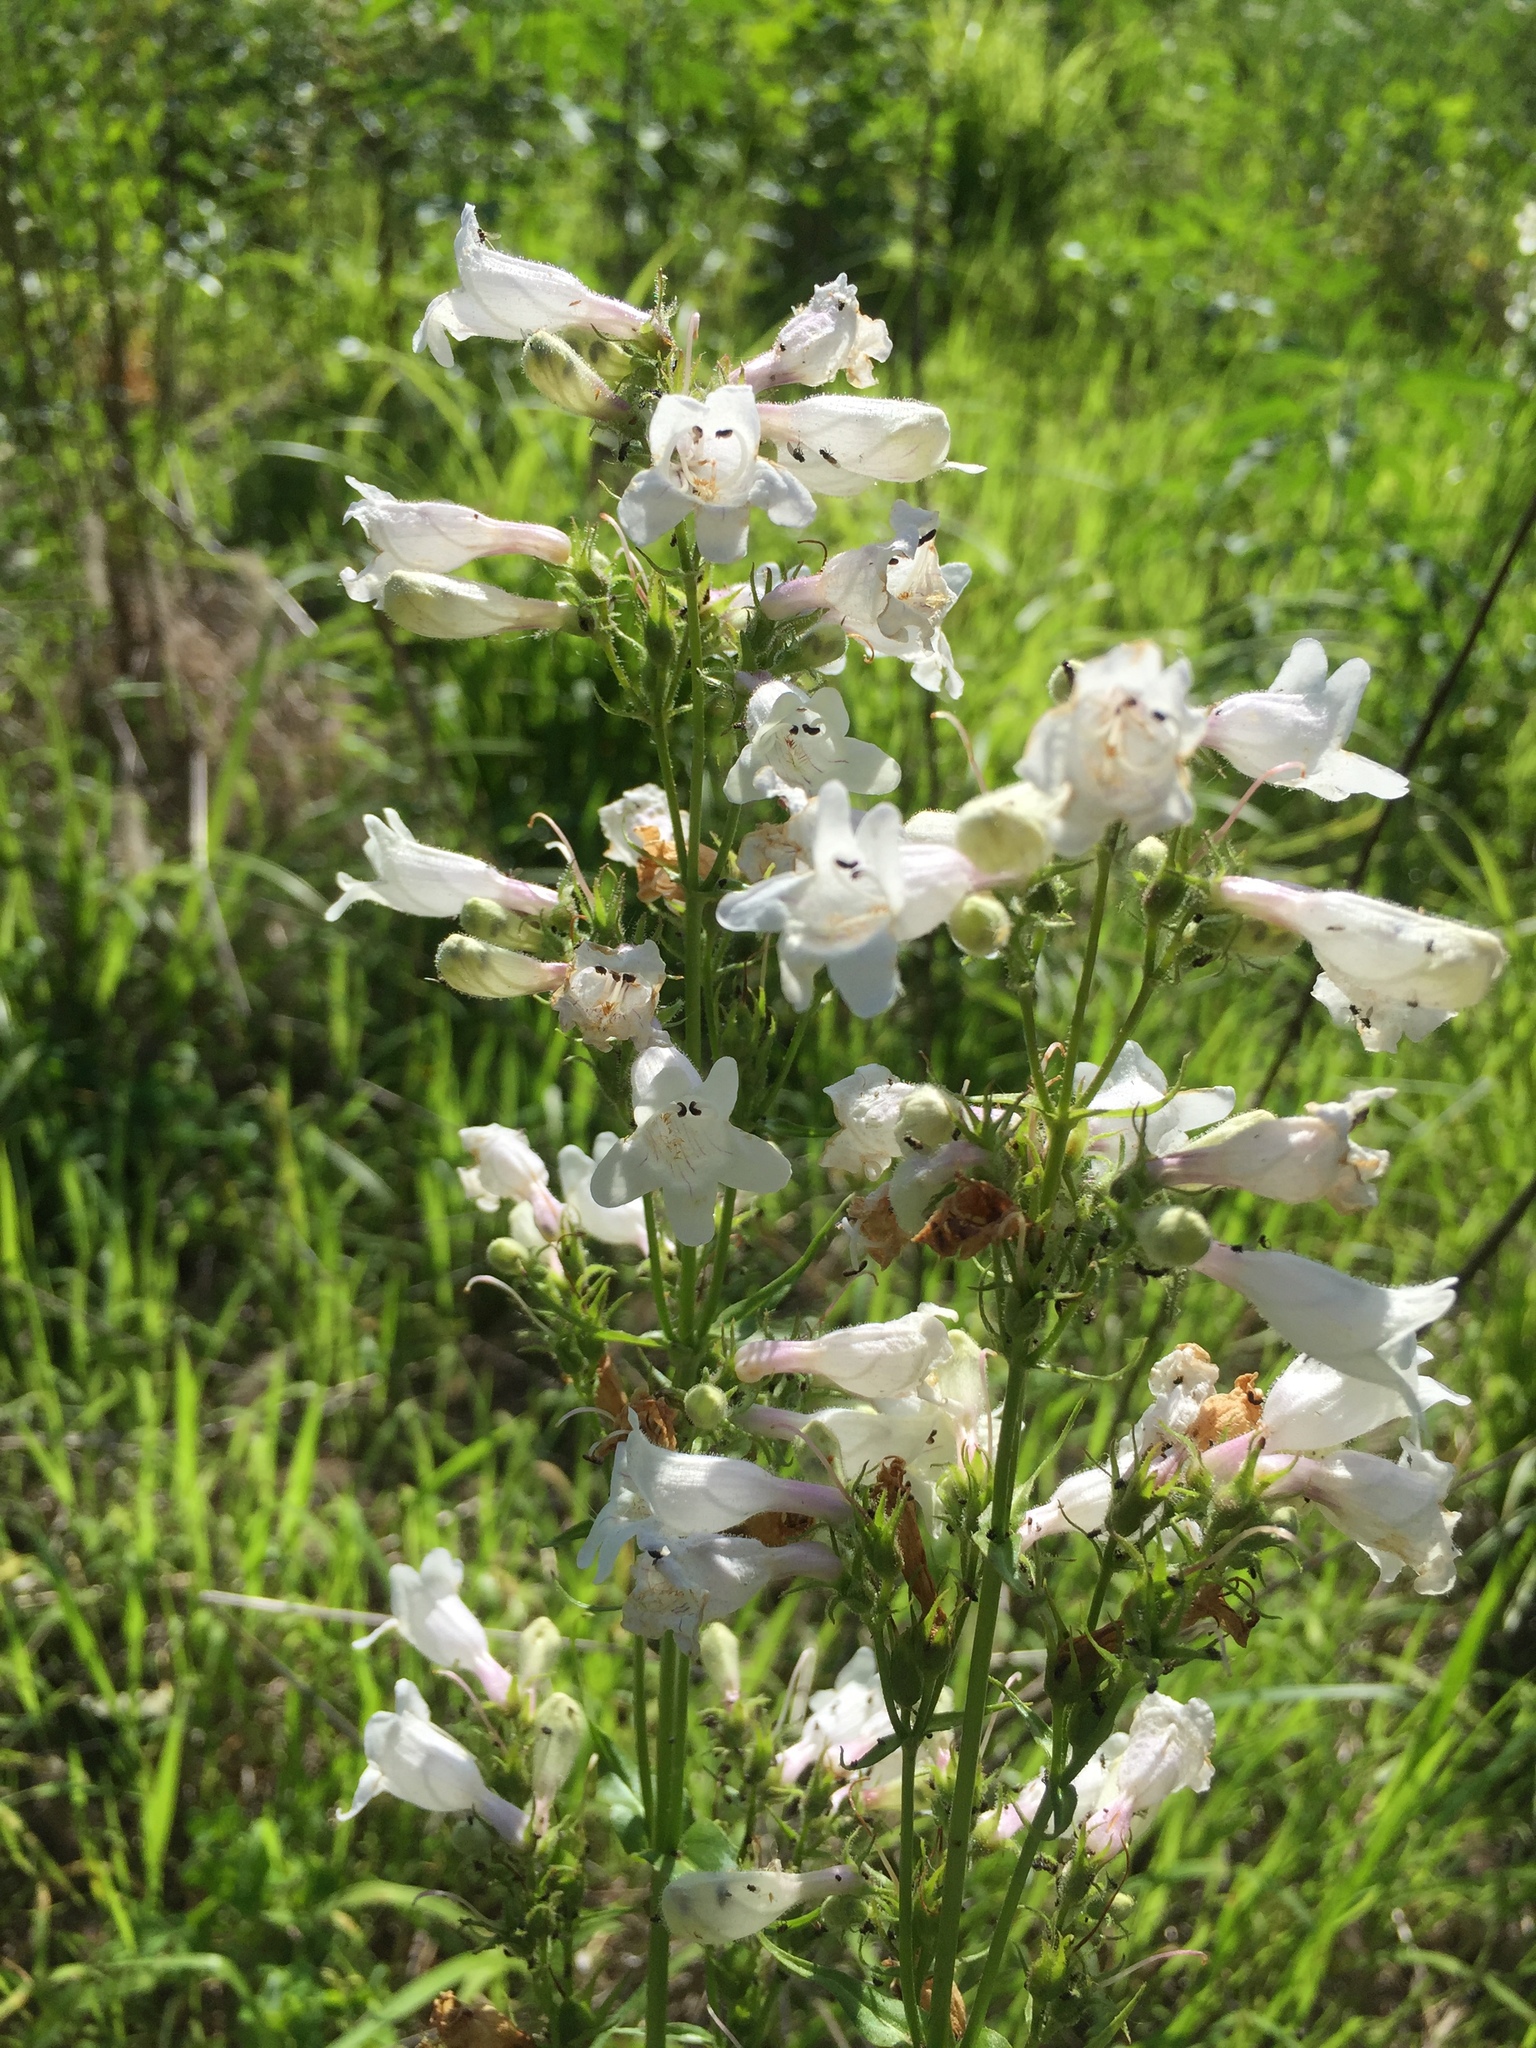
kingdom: Plantae
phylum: Tracheophyta
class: Magnoliopsida
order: Lamiales
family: Plantaginaceae
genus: Penstemon
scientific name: Penstemon digitalis
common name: Foxglove beardtongue
